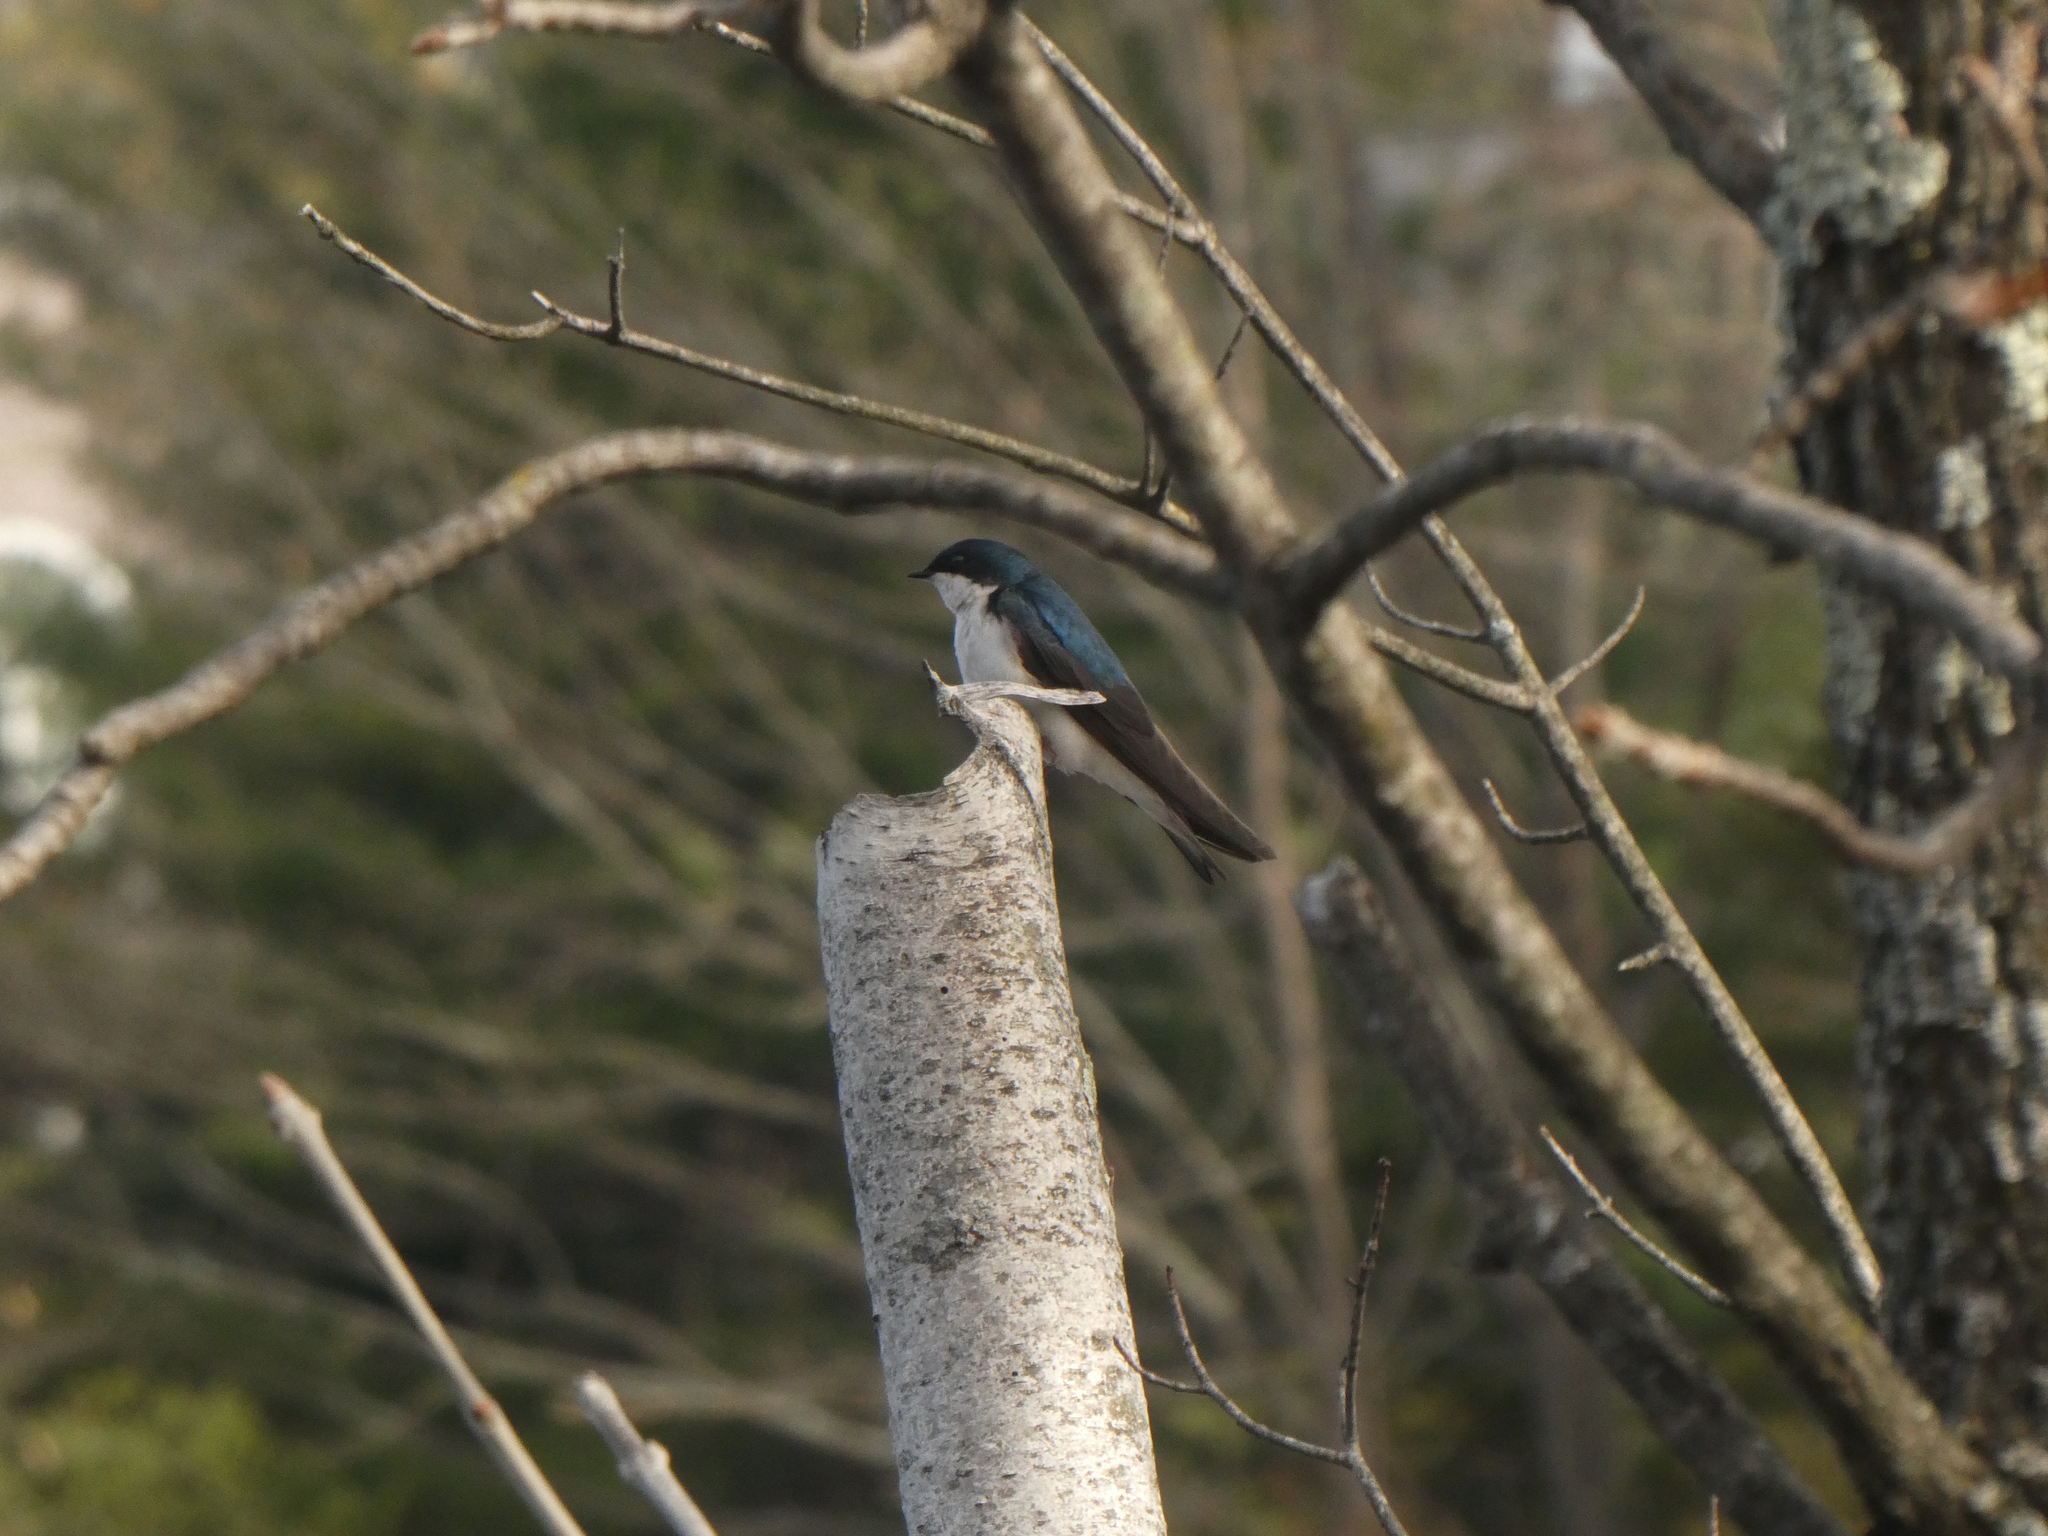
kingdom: Animalia
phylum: Chordata
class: Aves
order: Passeriformes
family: Hirundinidae
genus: Tachycineta
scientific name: Tachycineta bicolor
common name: Tree swallow
